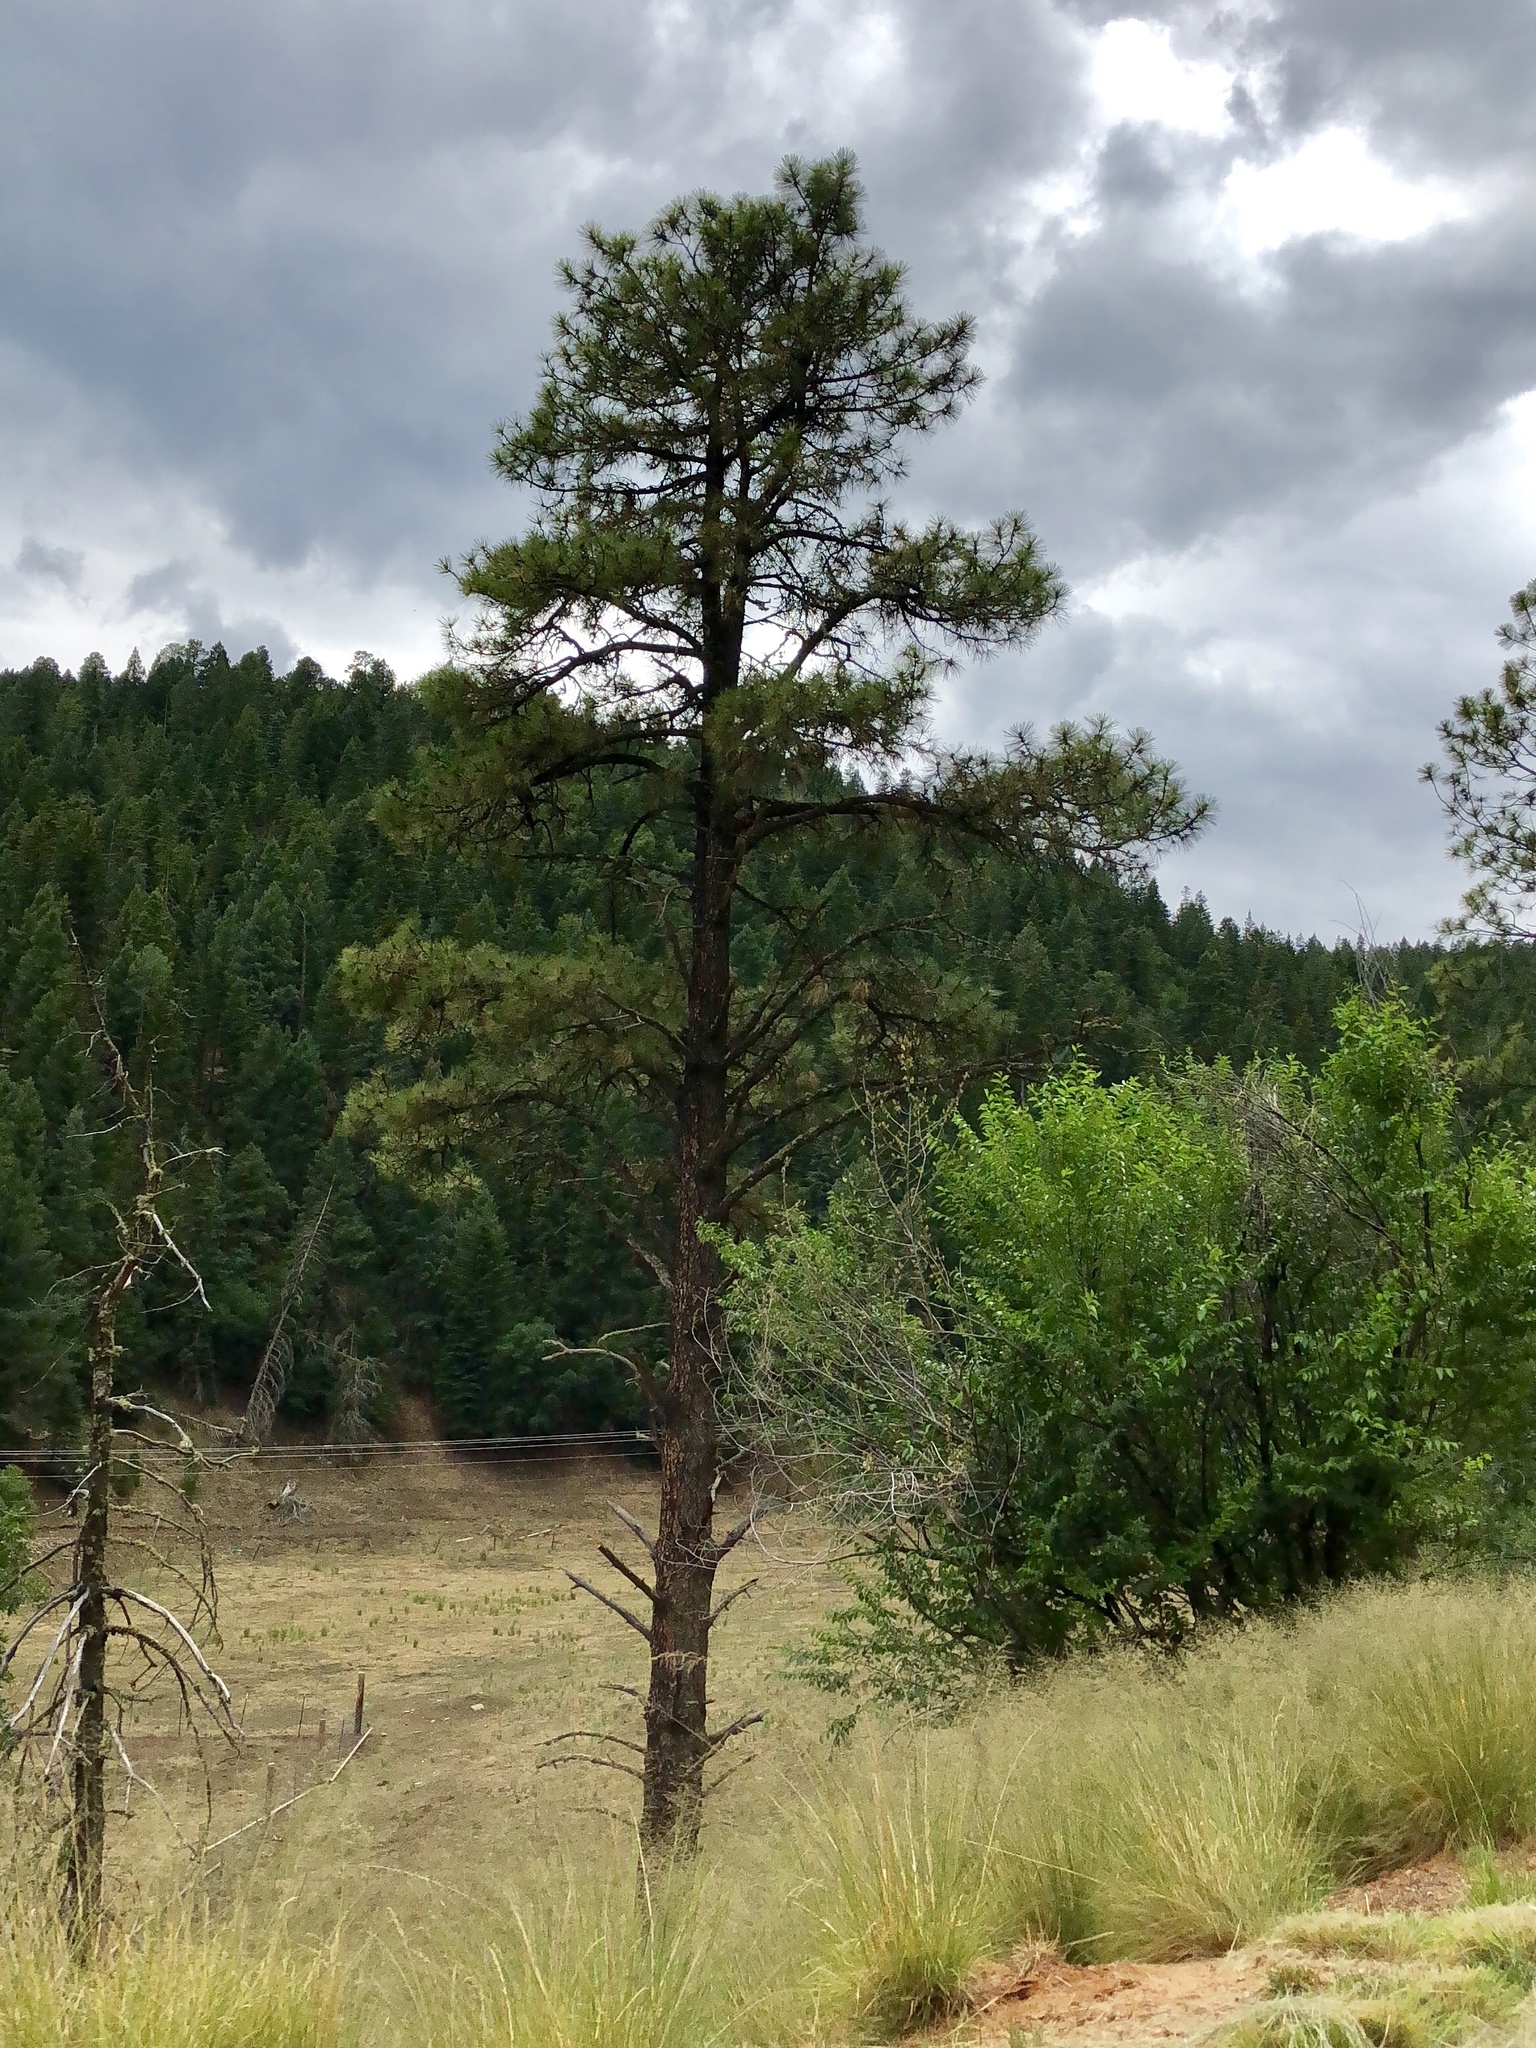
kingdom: Plantae
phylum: Tracheophyta
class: Pinopsida
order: Pinales
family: Pinaceae
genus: Pinus
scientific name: Pinus ponderosa
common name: Western yellow-pine
